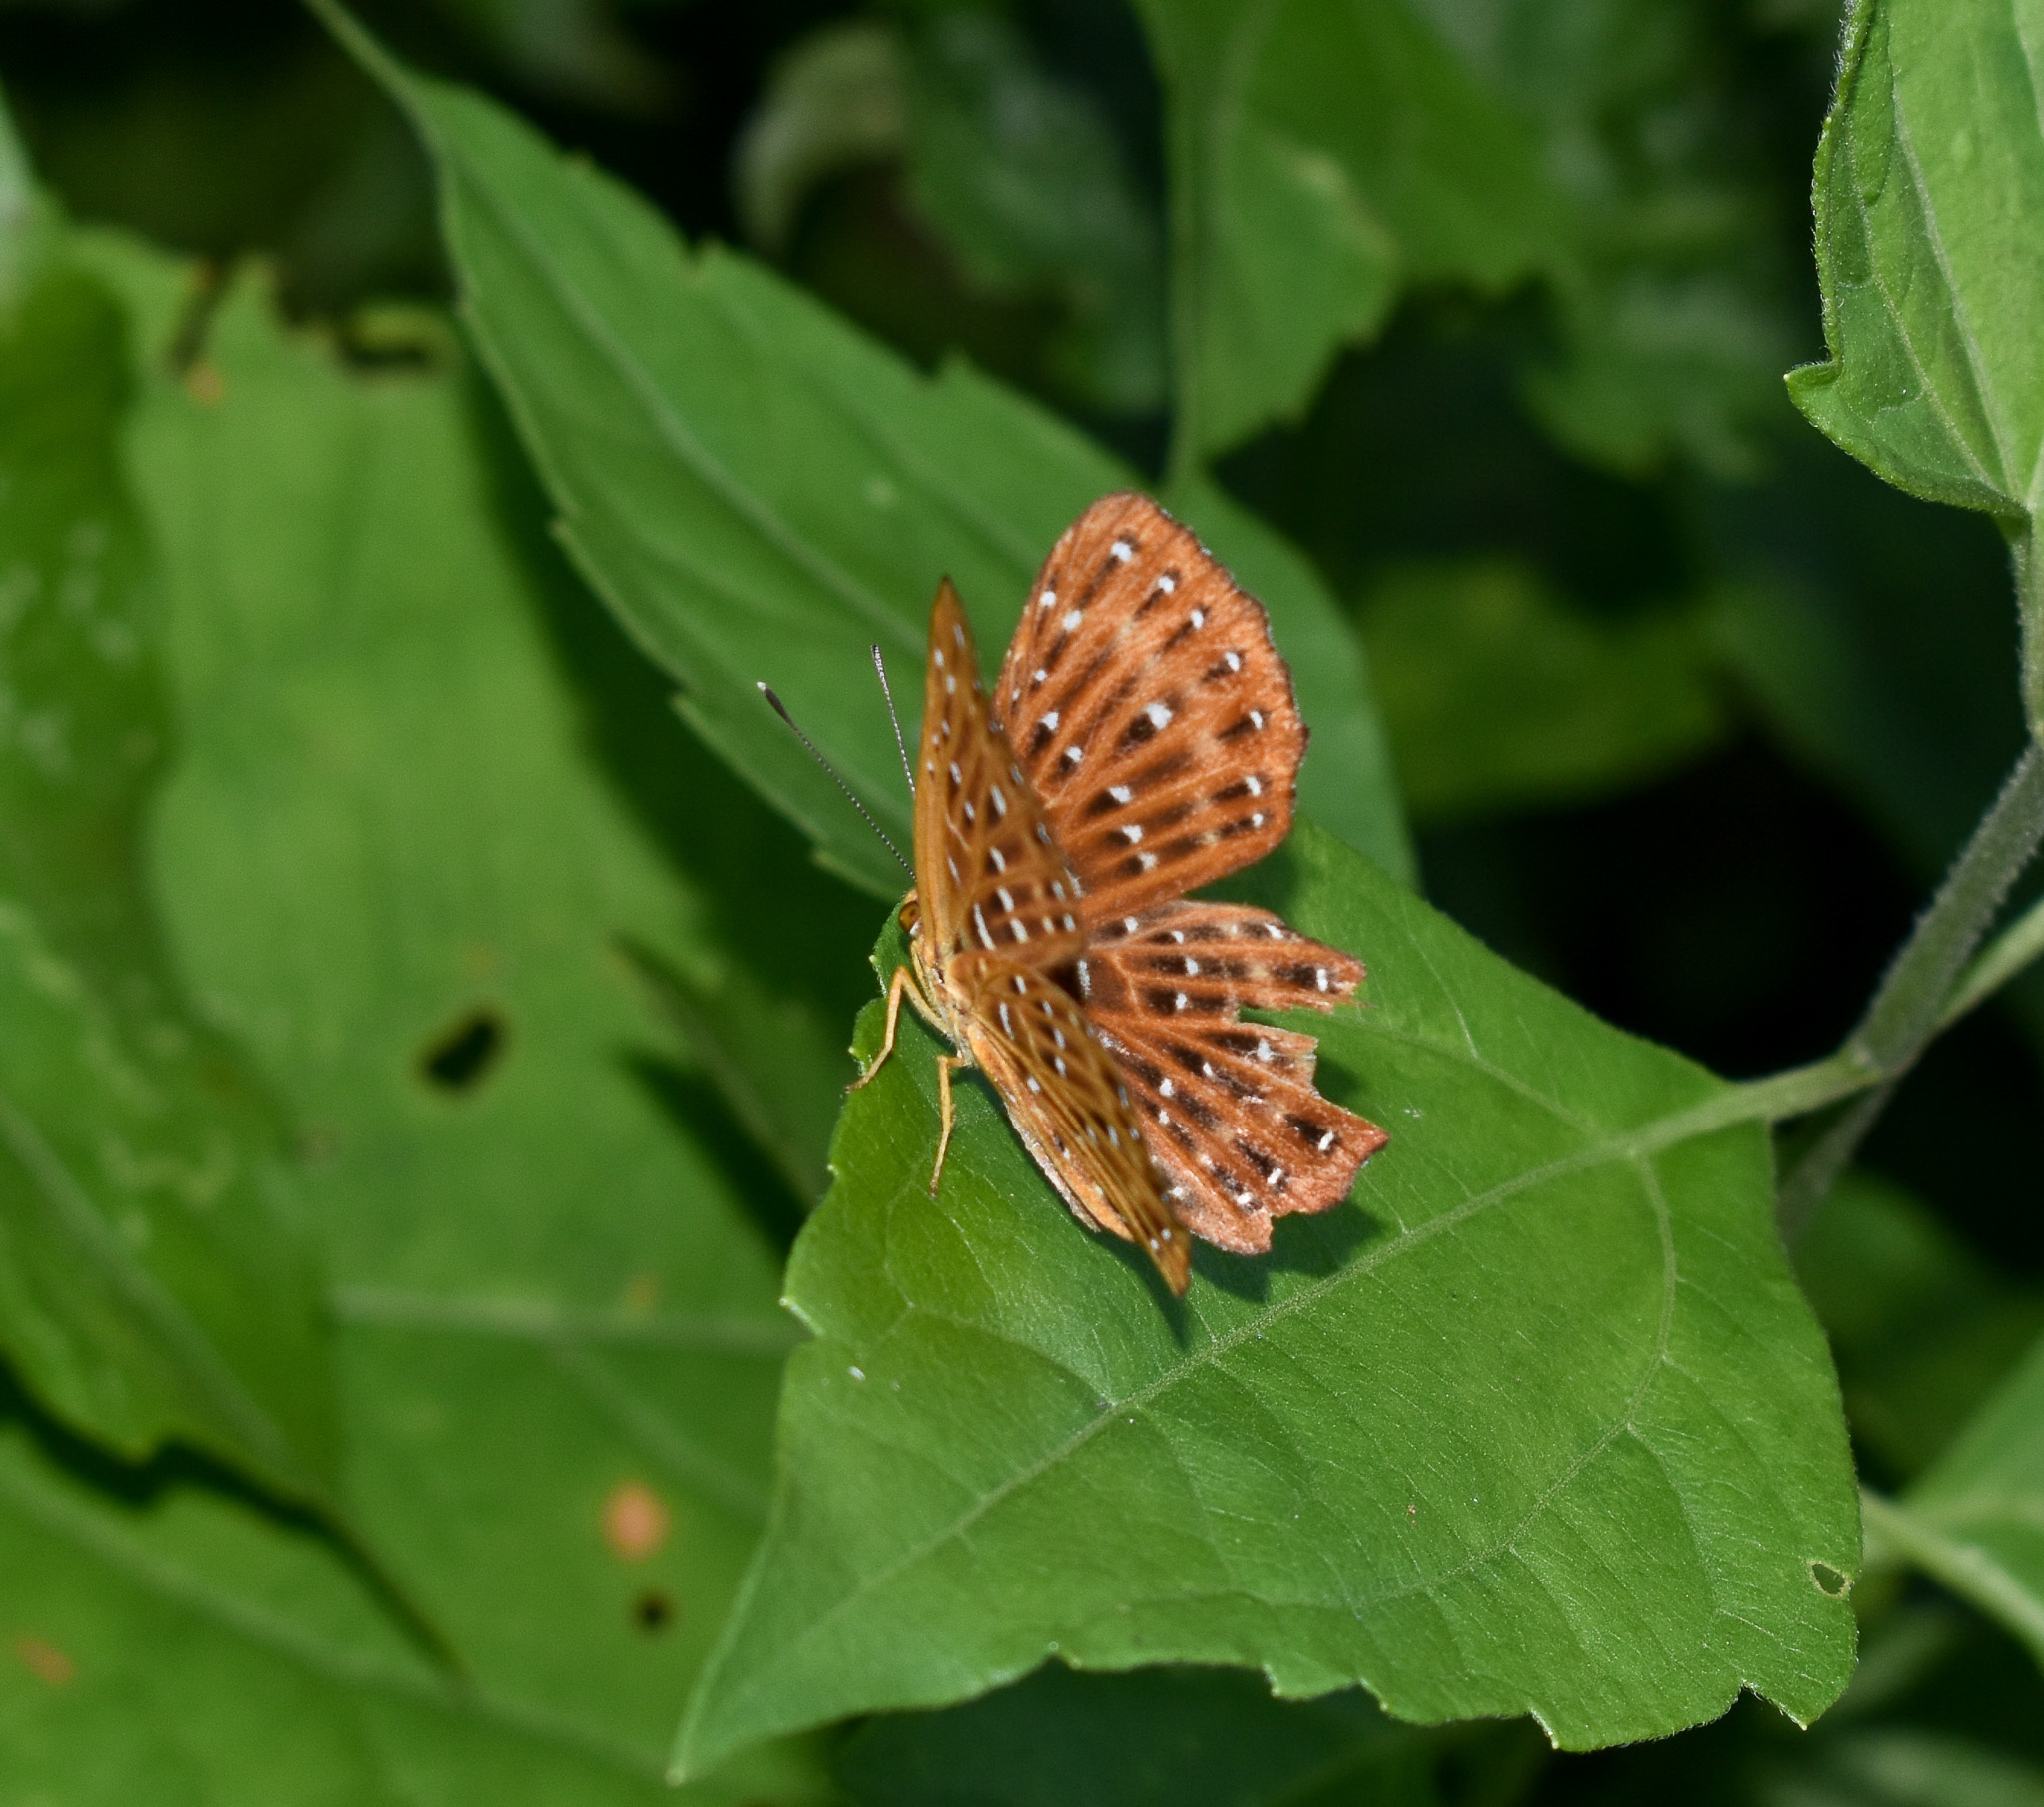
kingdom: Animalia
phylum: Arthropoda
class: Insecta
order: Lepidoptera
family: Riodinidae
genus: Zemeros
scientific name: Zemeros flegyas
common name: Punchinello
